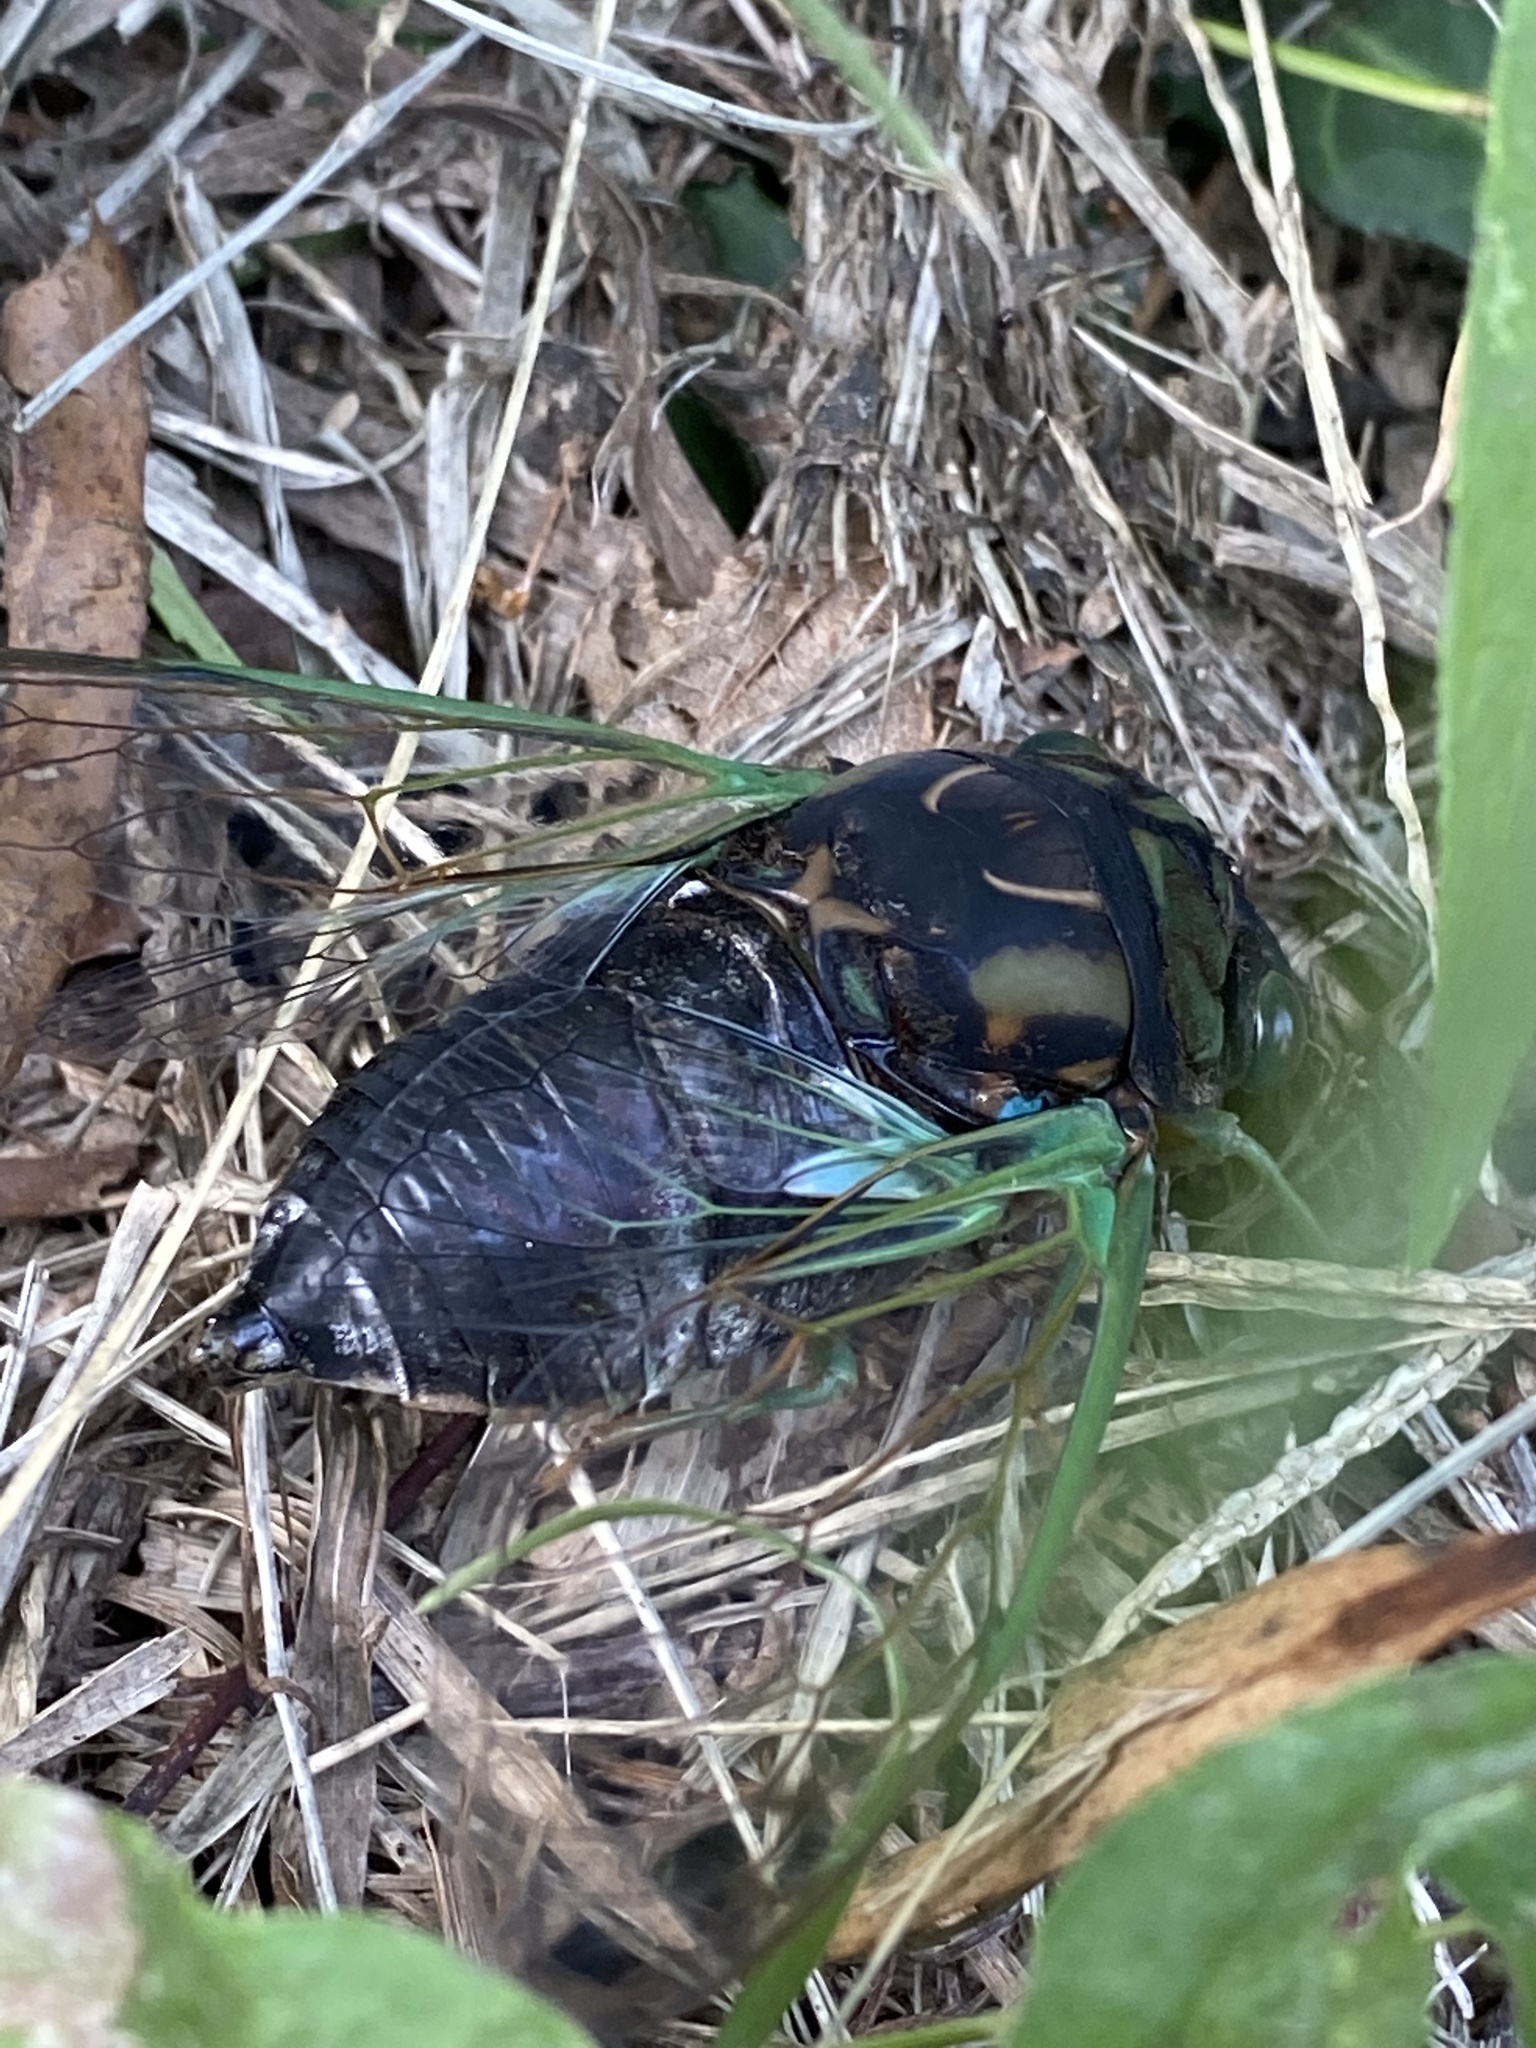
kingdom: Animalia
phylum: Arthropoda
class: Insecta
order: Hemiptera
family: Cicadidae
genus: Neotibicen
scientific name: Neotibicen tibicen
